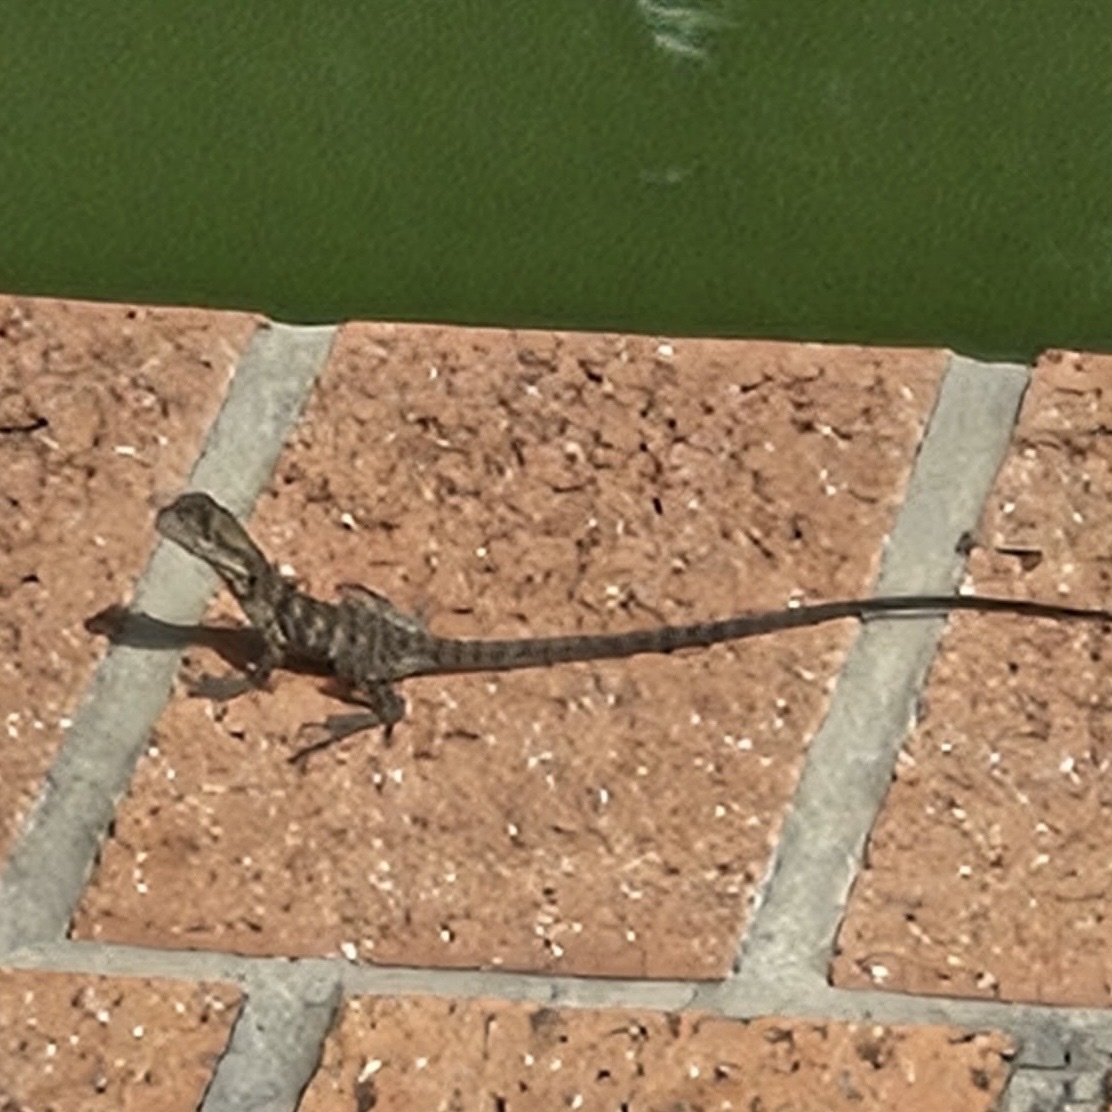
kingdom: Animalia
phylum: Chordata
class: Squamata
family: Agamidae
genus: Intellagama
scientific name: Intellagama lesueurii
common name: Eastern water dragon
